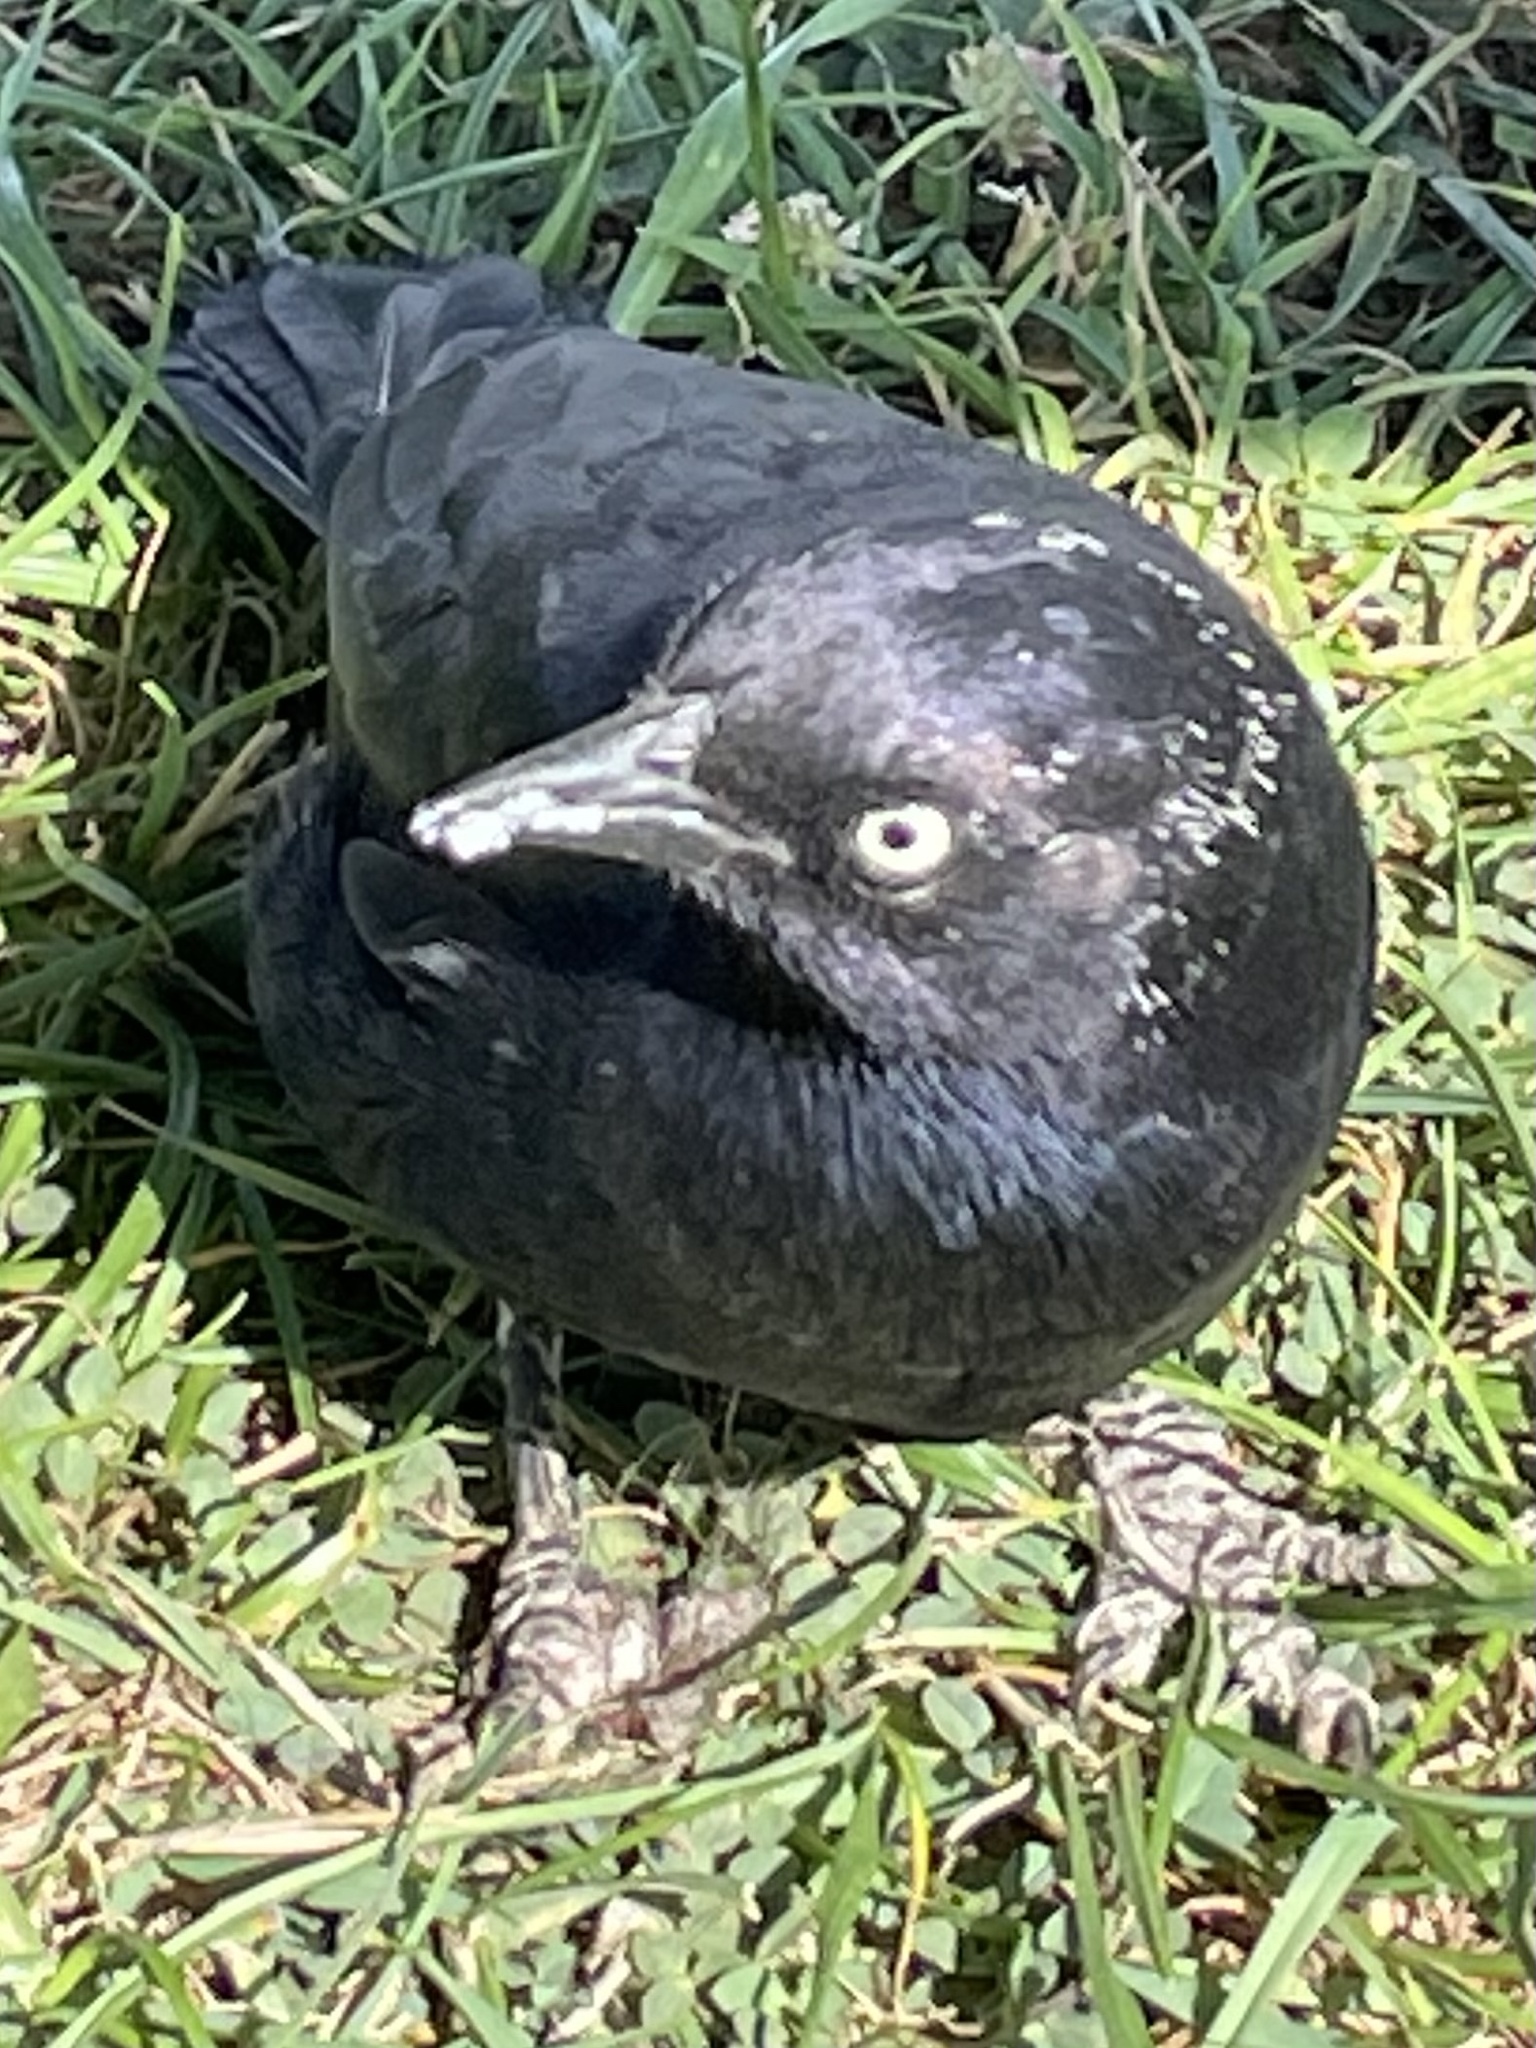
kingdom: Animalia
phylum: Chordata
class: Aves
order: Passeriformes
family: Icteridae
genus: Euphagus
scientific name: Euphagus cyanocephalus
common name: Brewer's blackbird
